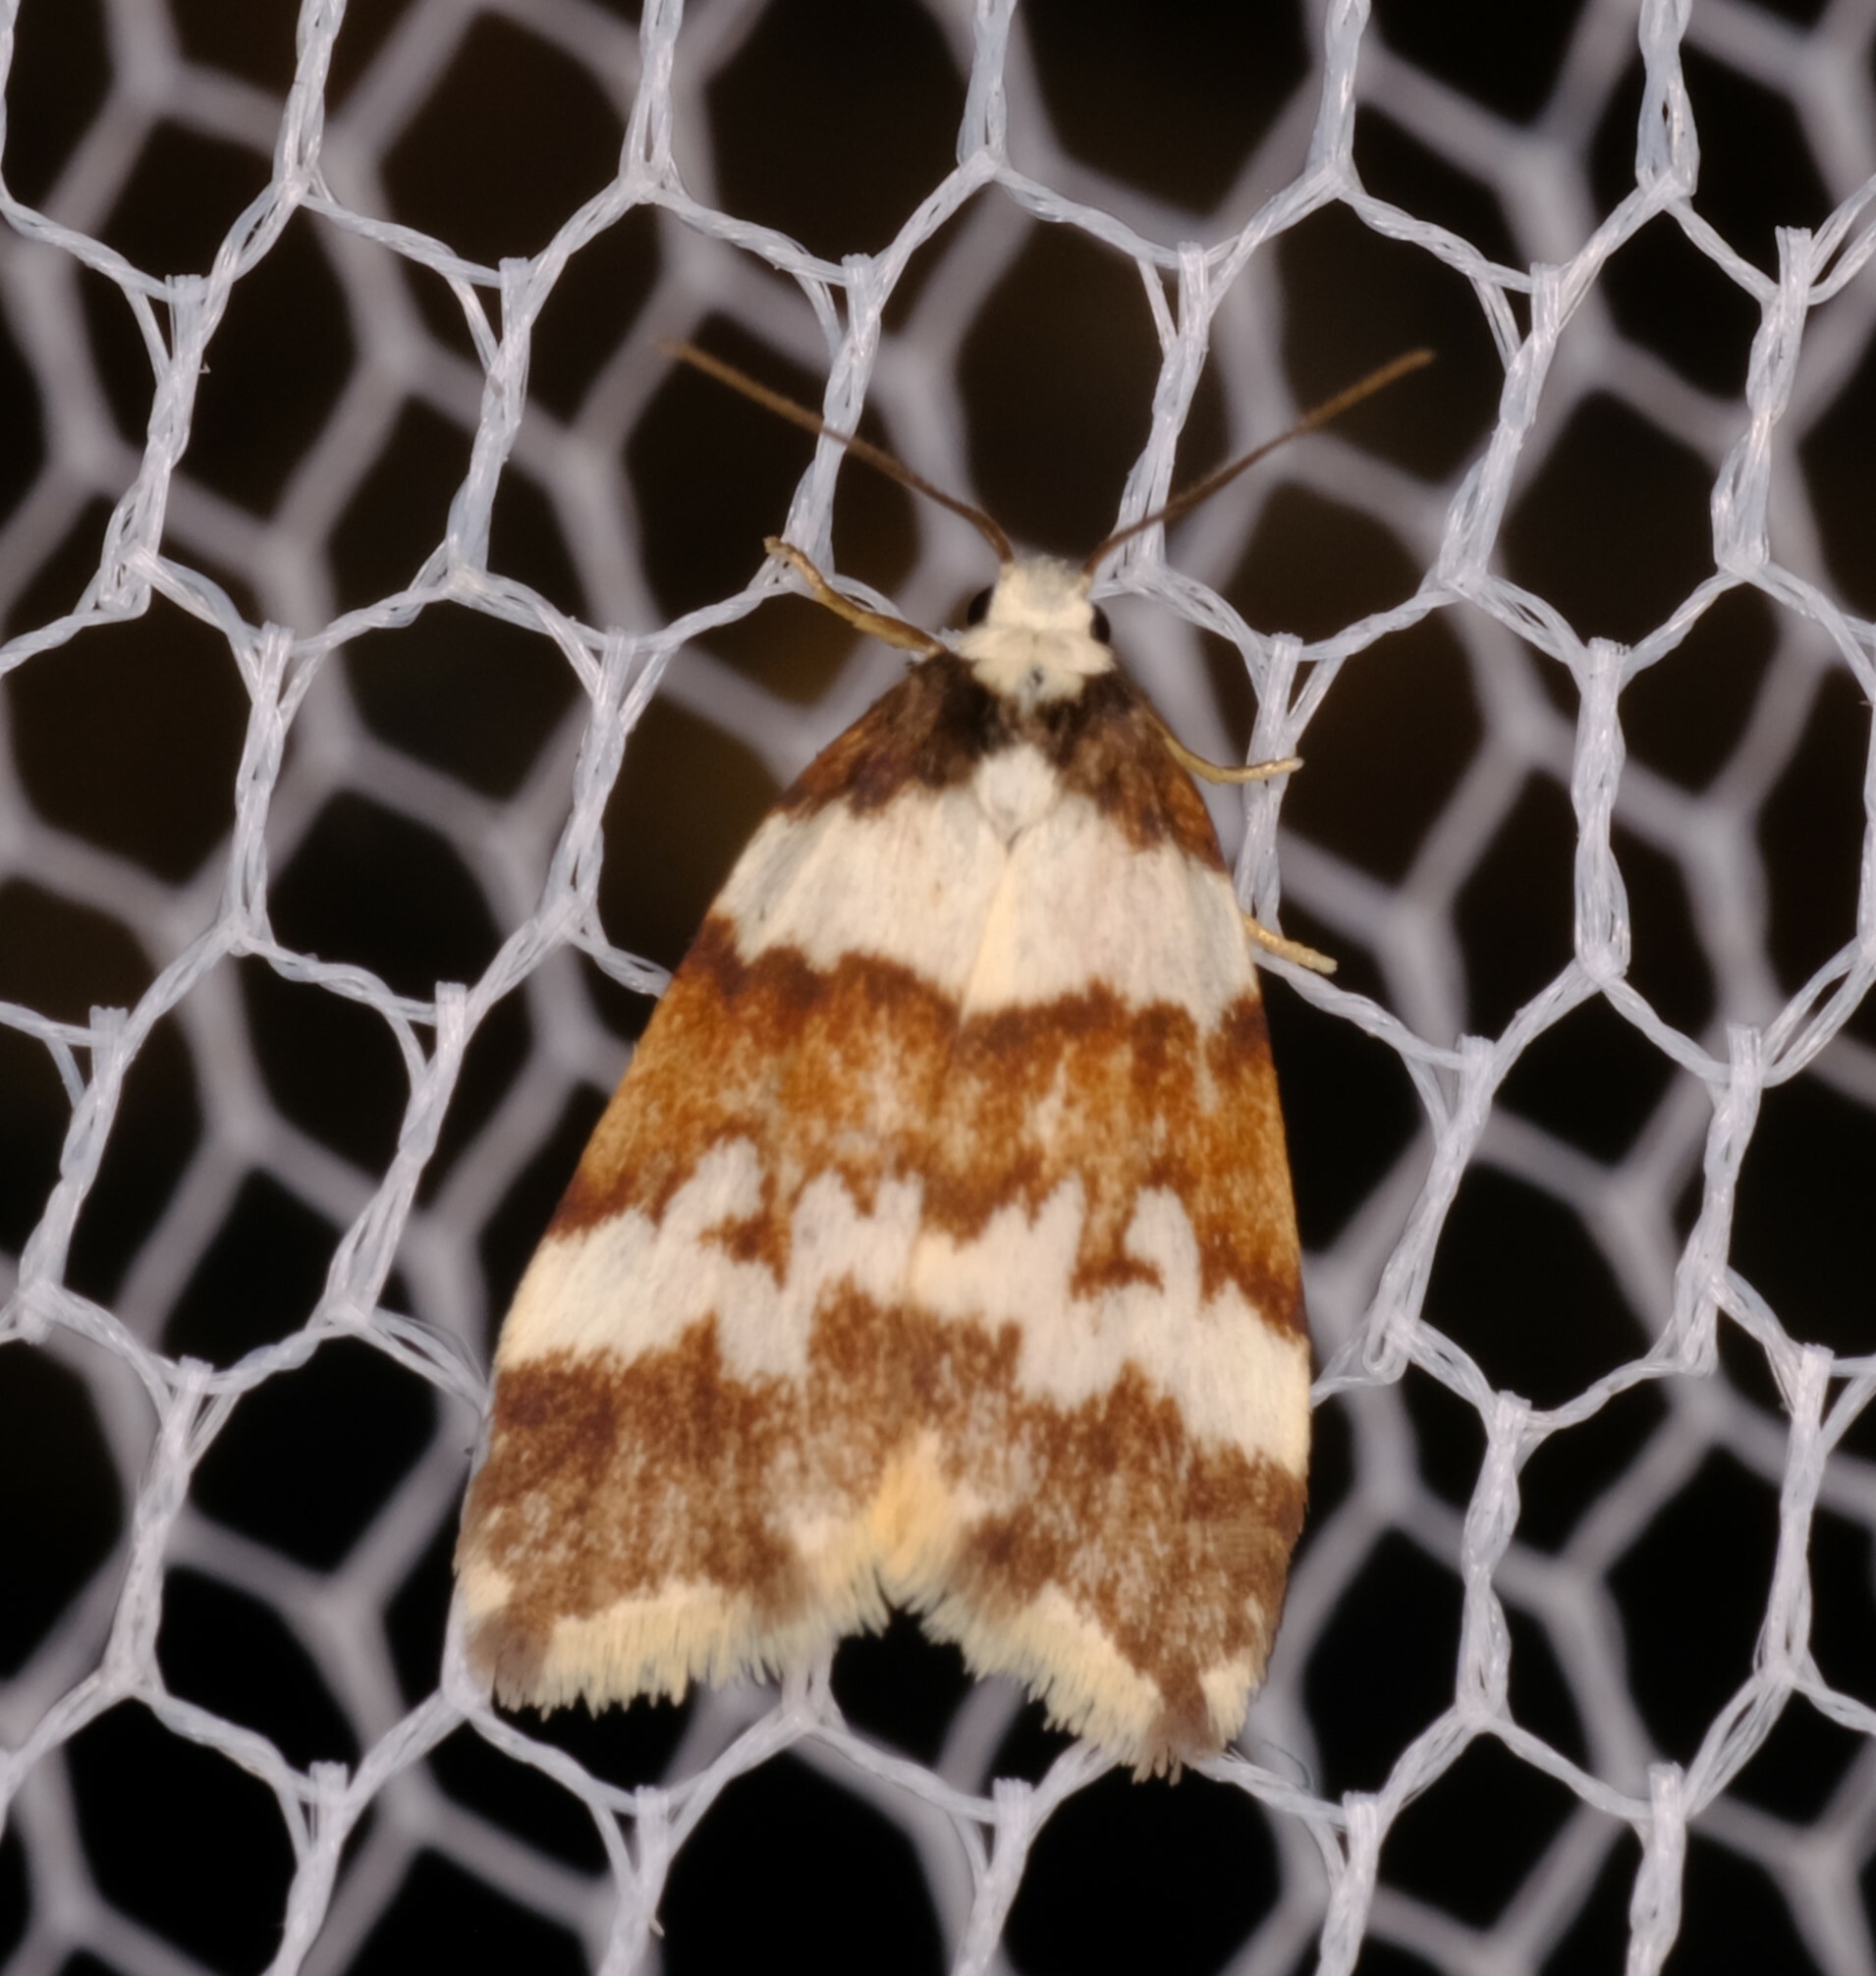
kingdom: Animalia
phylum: Arthropoda
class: Insecta
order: Lepidoptera
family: Erebidae
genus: Halone
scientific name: Halone sejuncta
